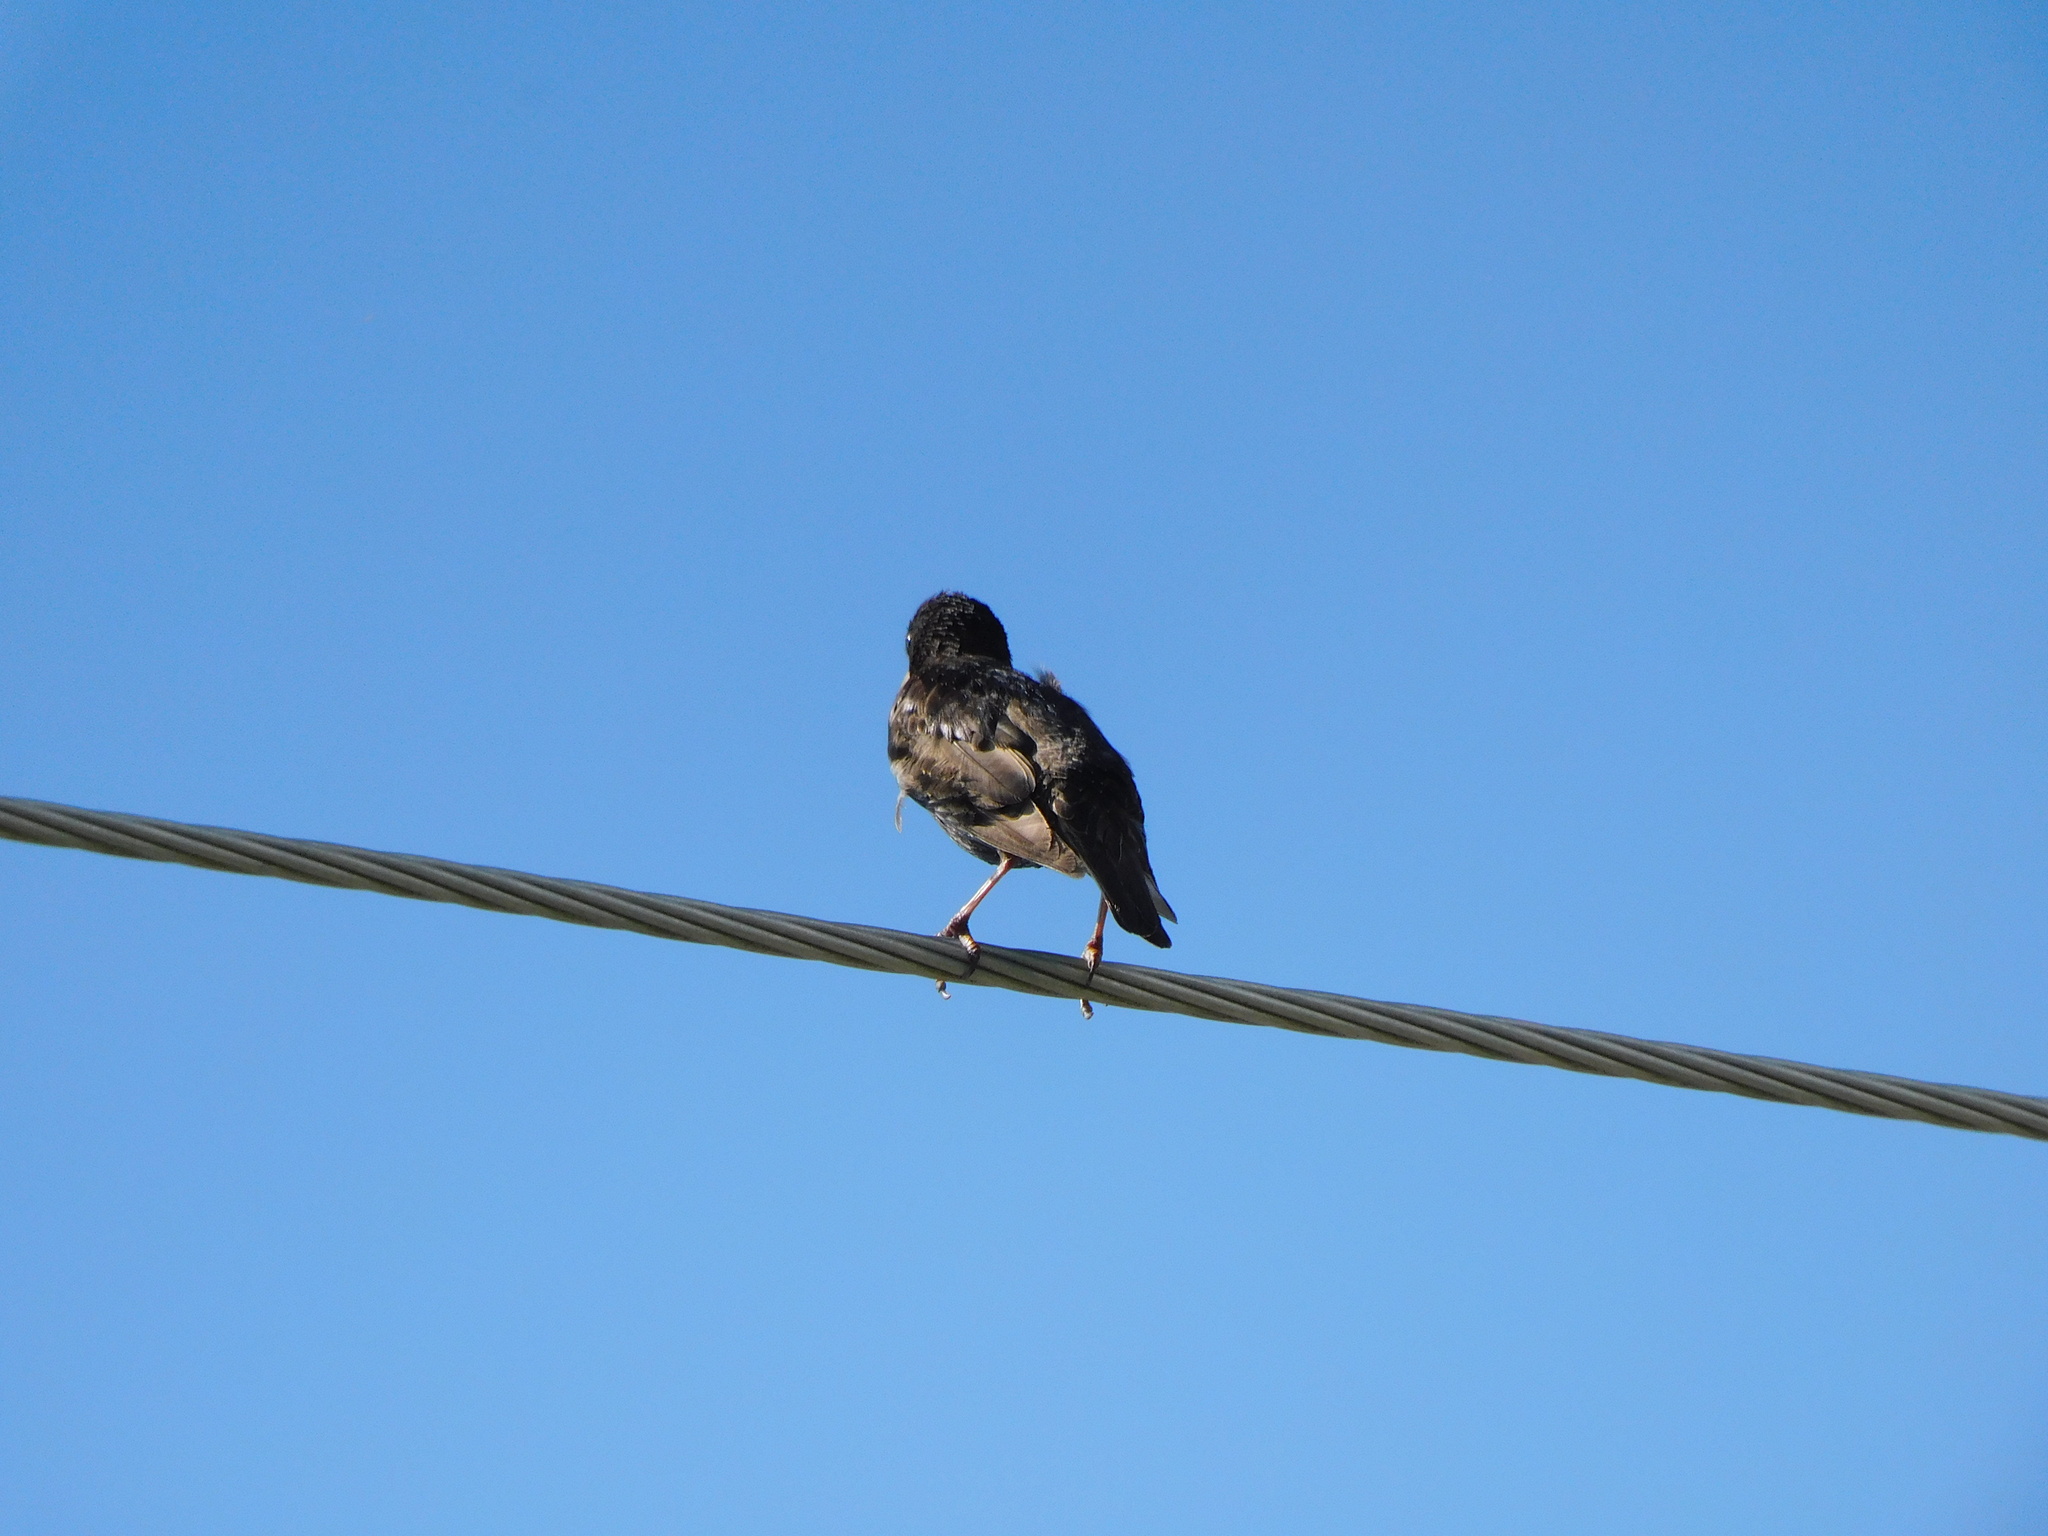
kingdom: Animalia
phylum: Chordata
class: Aves
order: Passeriformes
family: Sturnidae
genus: Sturnus
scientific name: Sturnus vulgaris
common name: Common starling
